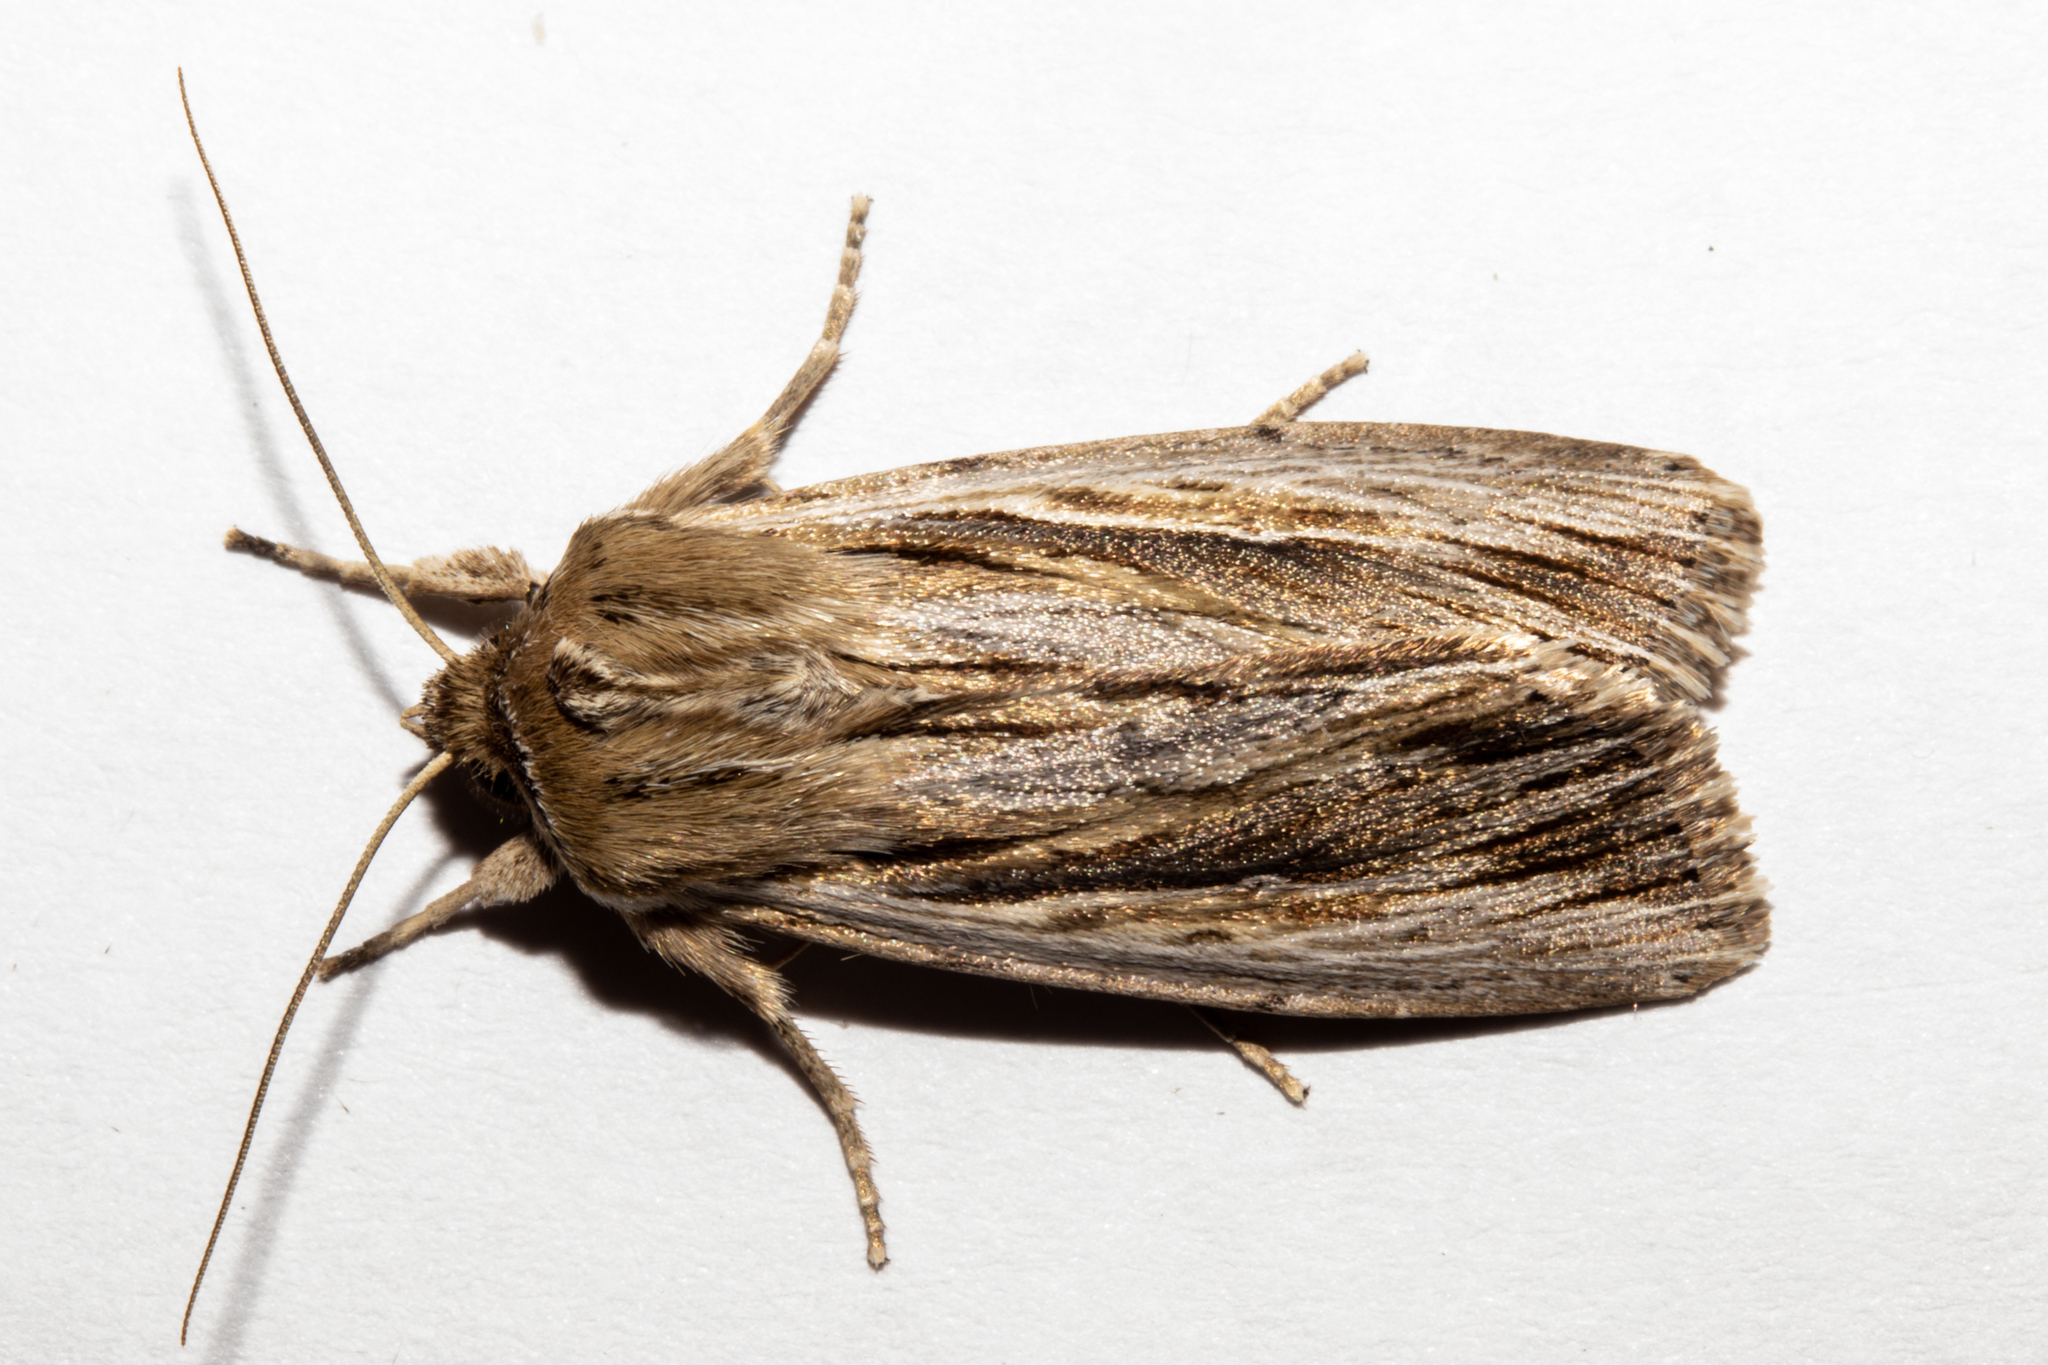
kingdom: Animalia
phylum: Arthropoda
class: Insecta
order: Lepidoptera
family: Noctuidae
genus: Persectania
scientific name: Persectania aversa
